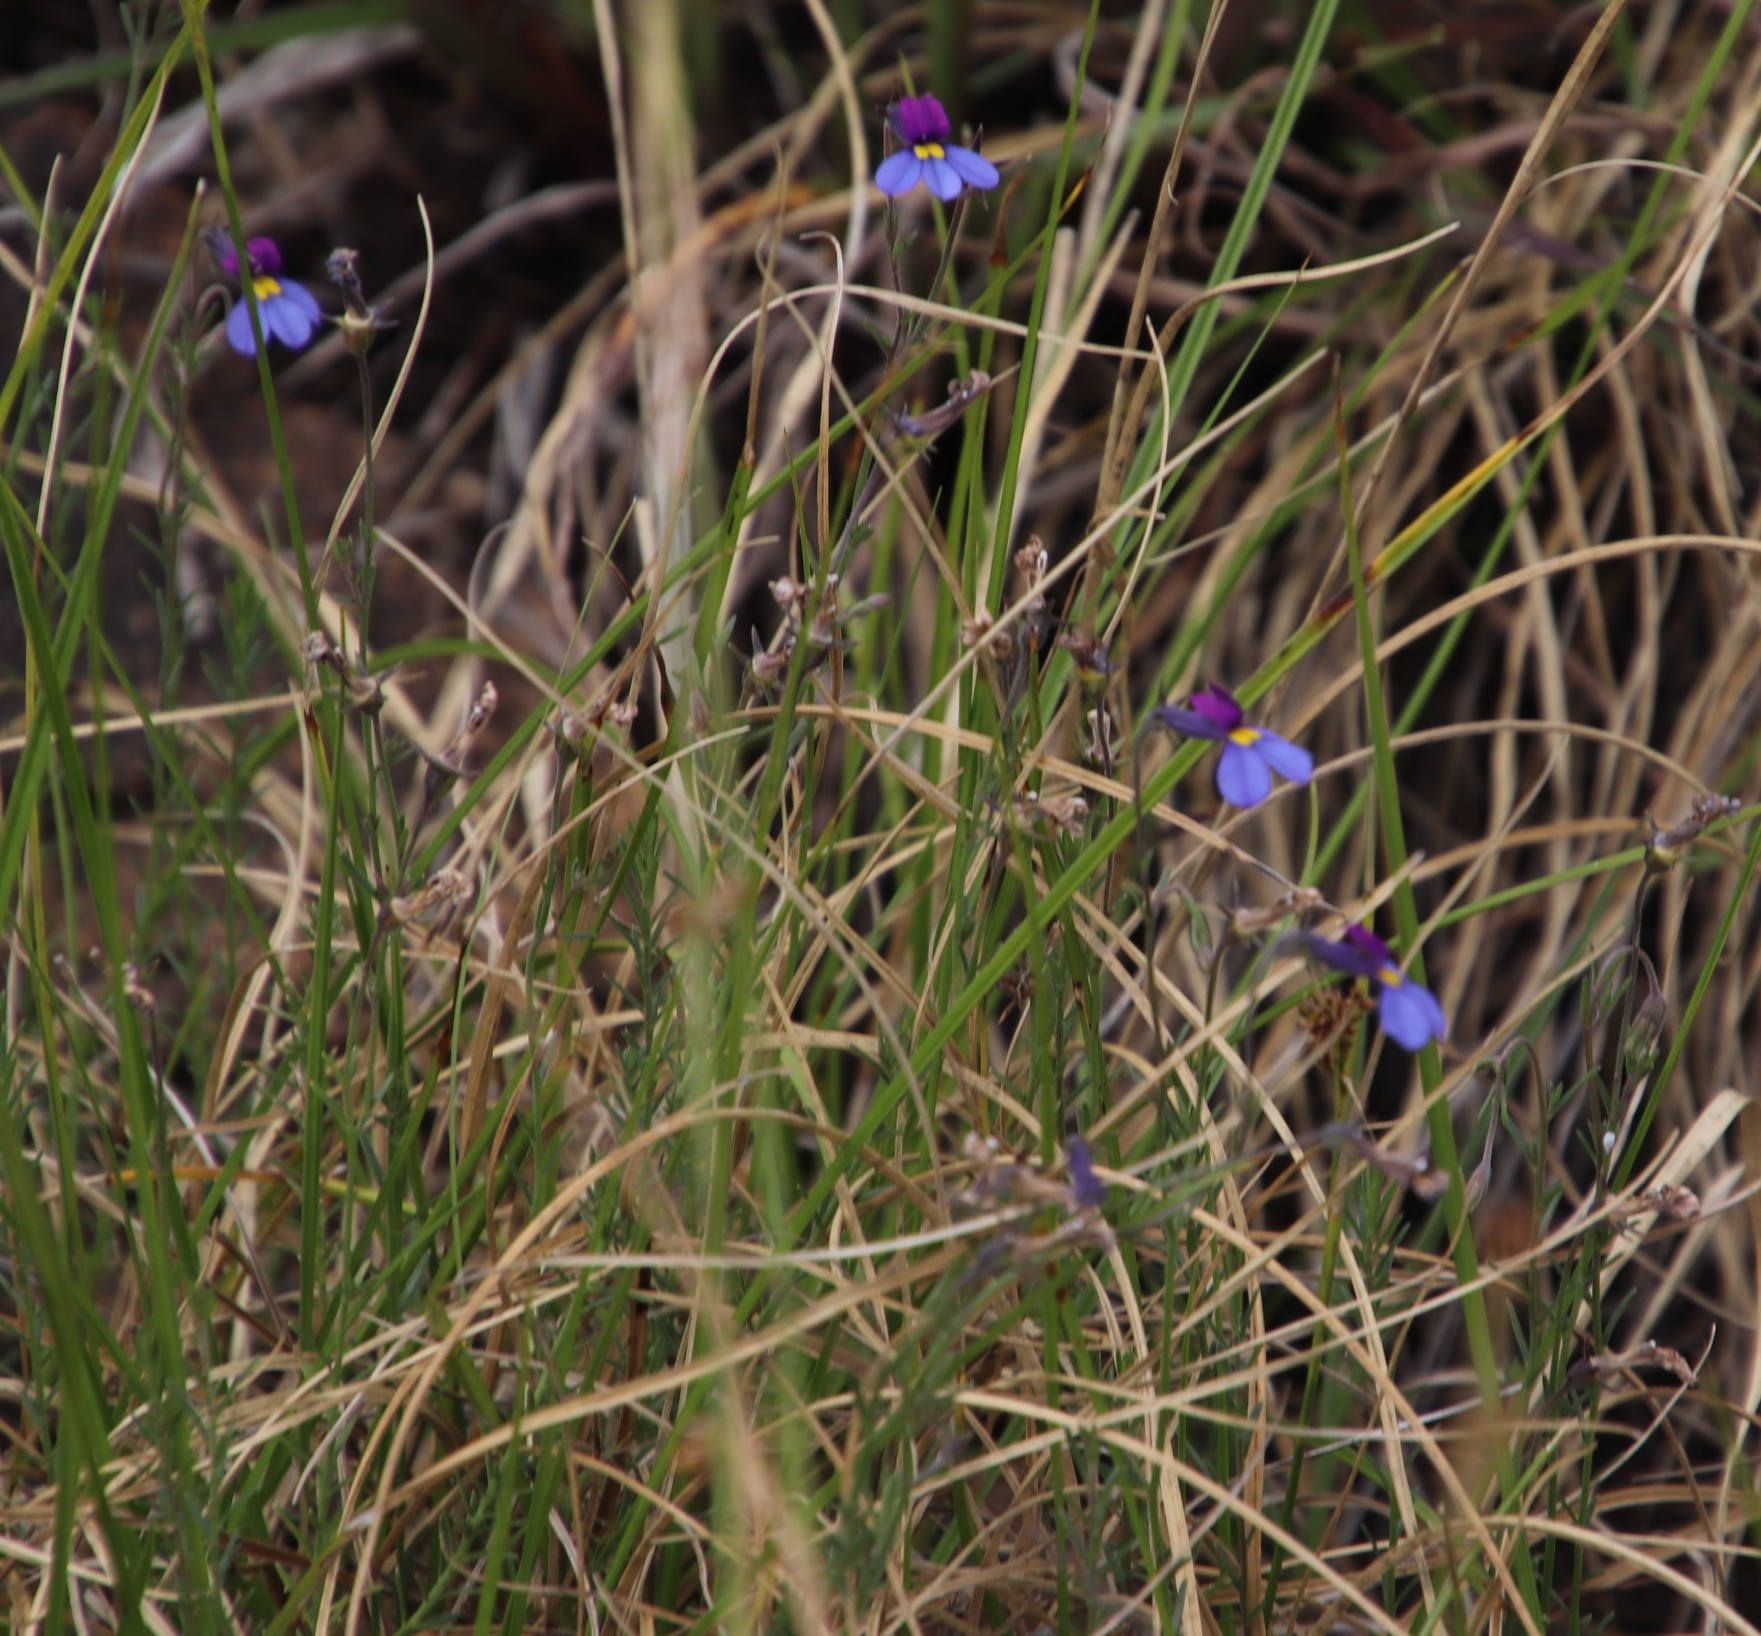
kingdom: Plantae
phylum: Tracheophyta
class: Magnoliopsida
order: Asterales
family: Campanulaceae
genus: Monopsis
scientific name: Monopsis decipiens
